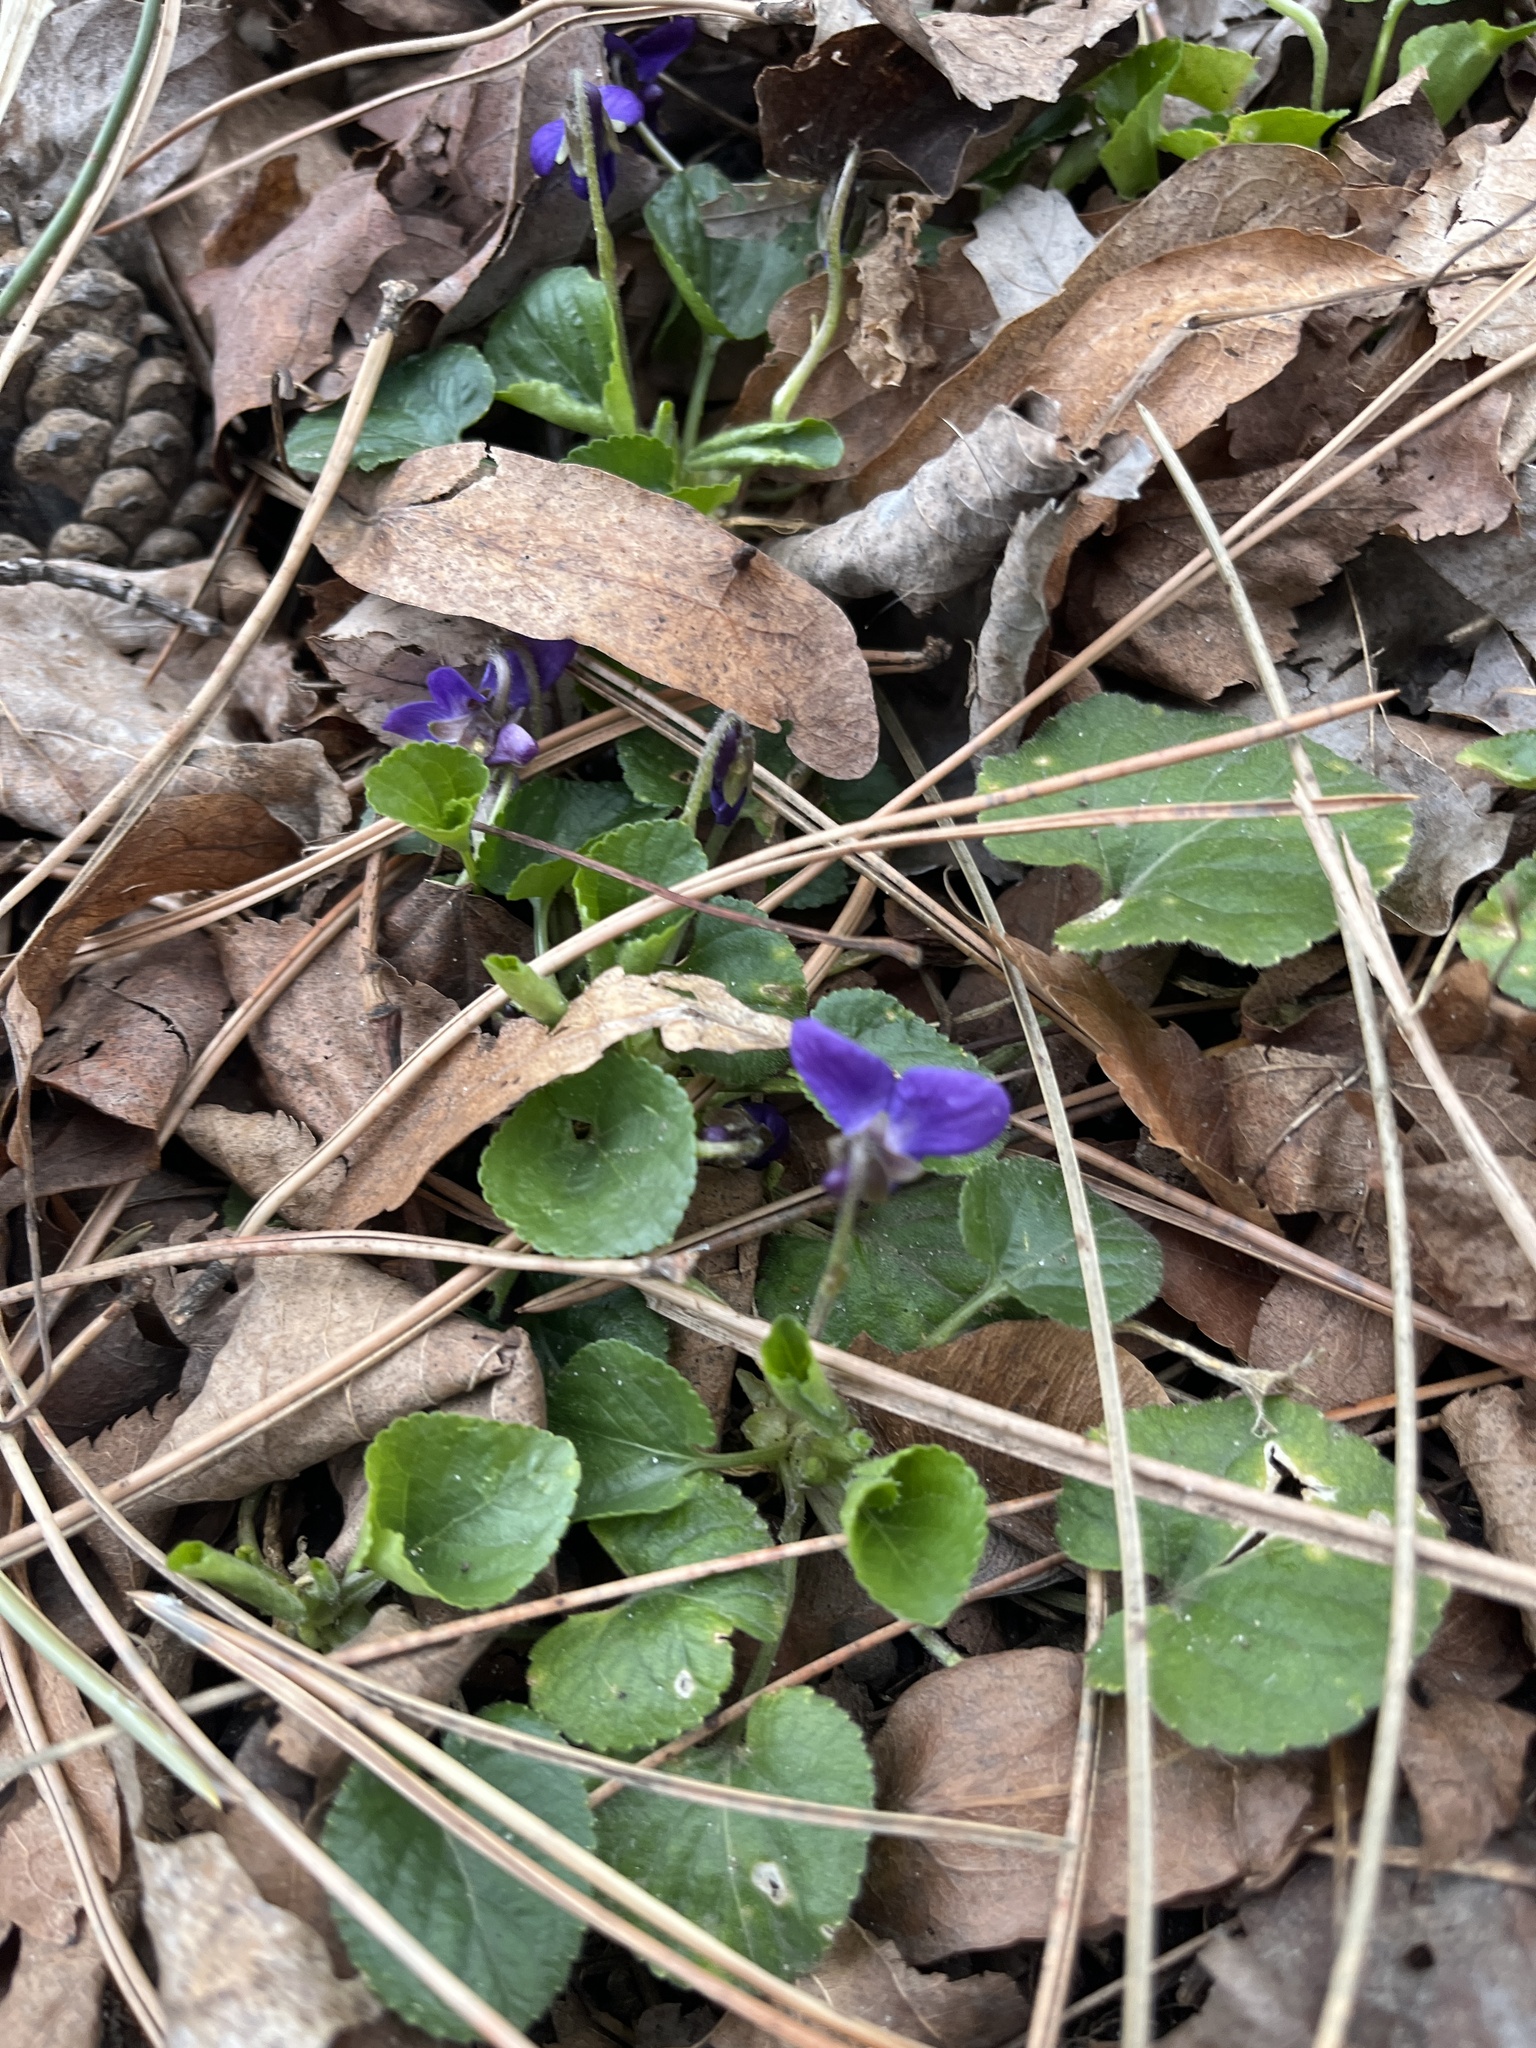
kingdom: Plantae
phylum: Tracheophyta
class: Magnoliopsida
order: Malpighiales
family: Violaceae
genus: Viola
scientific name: Viola odorata
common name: Sweet violet
